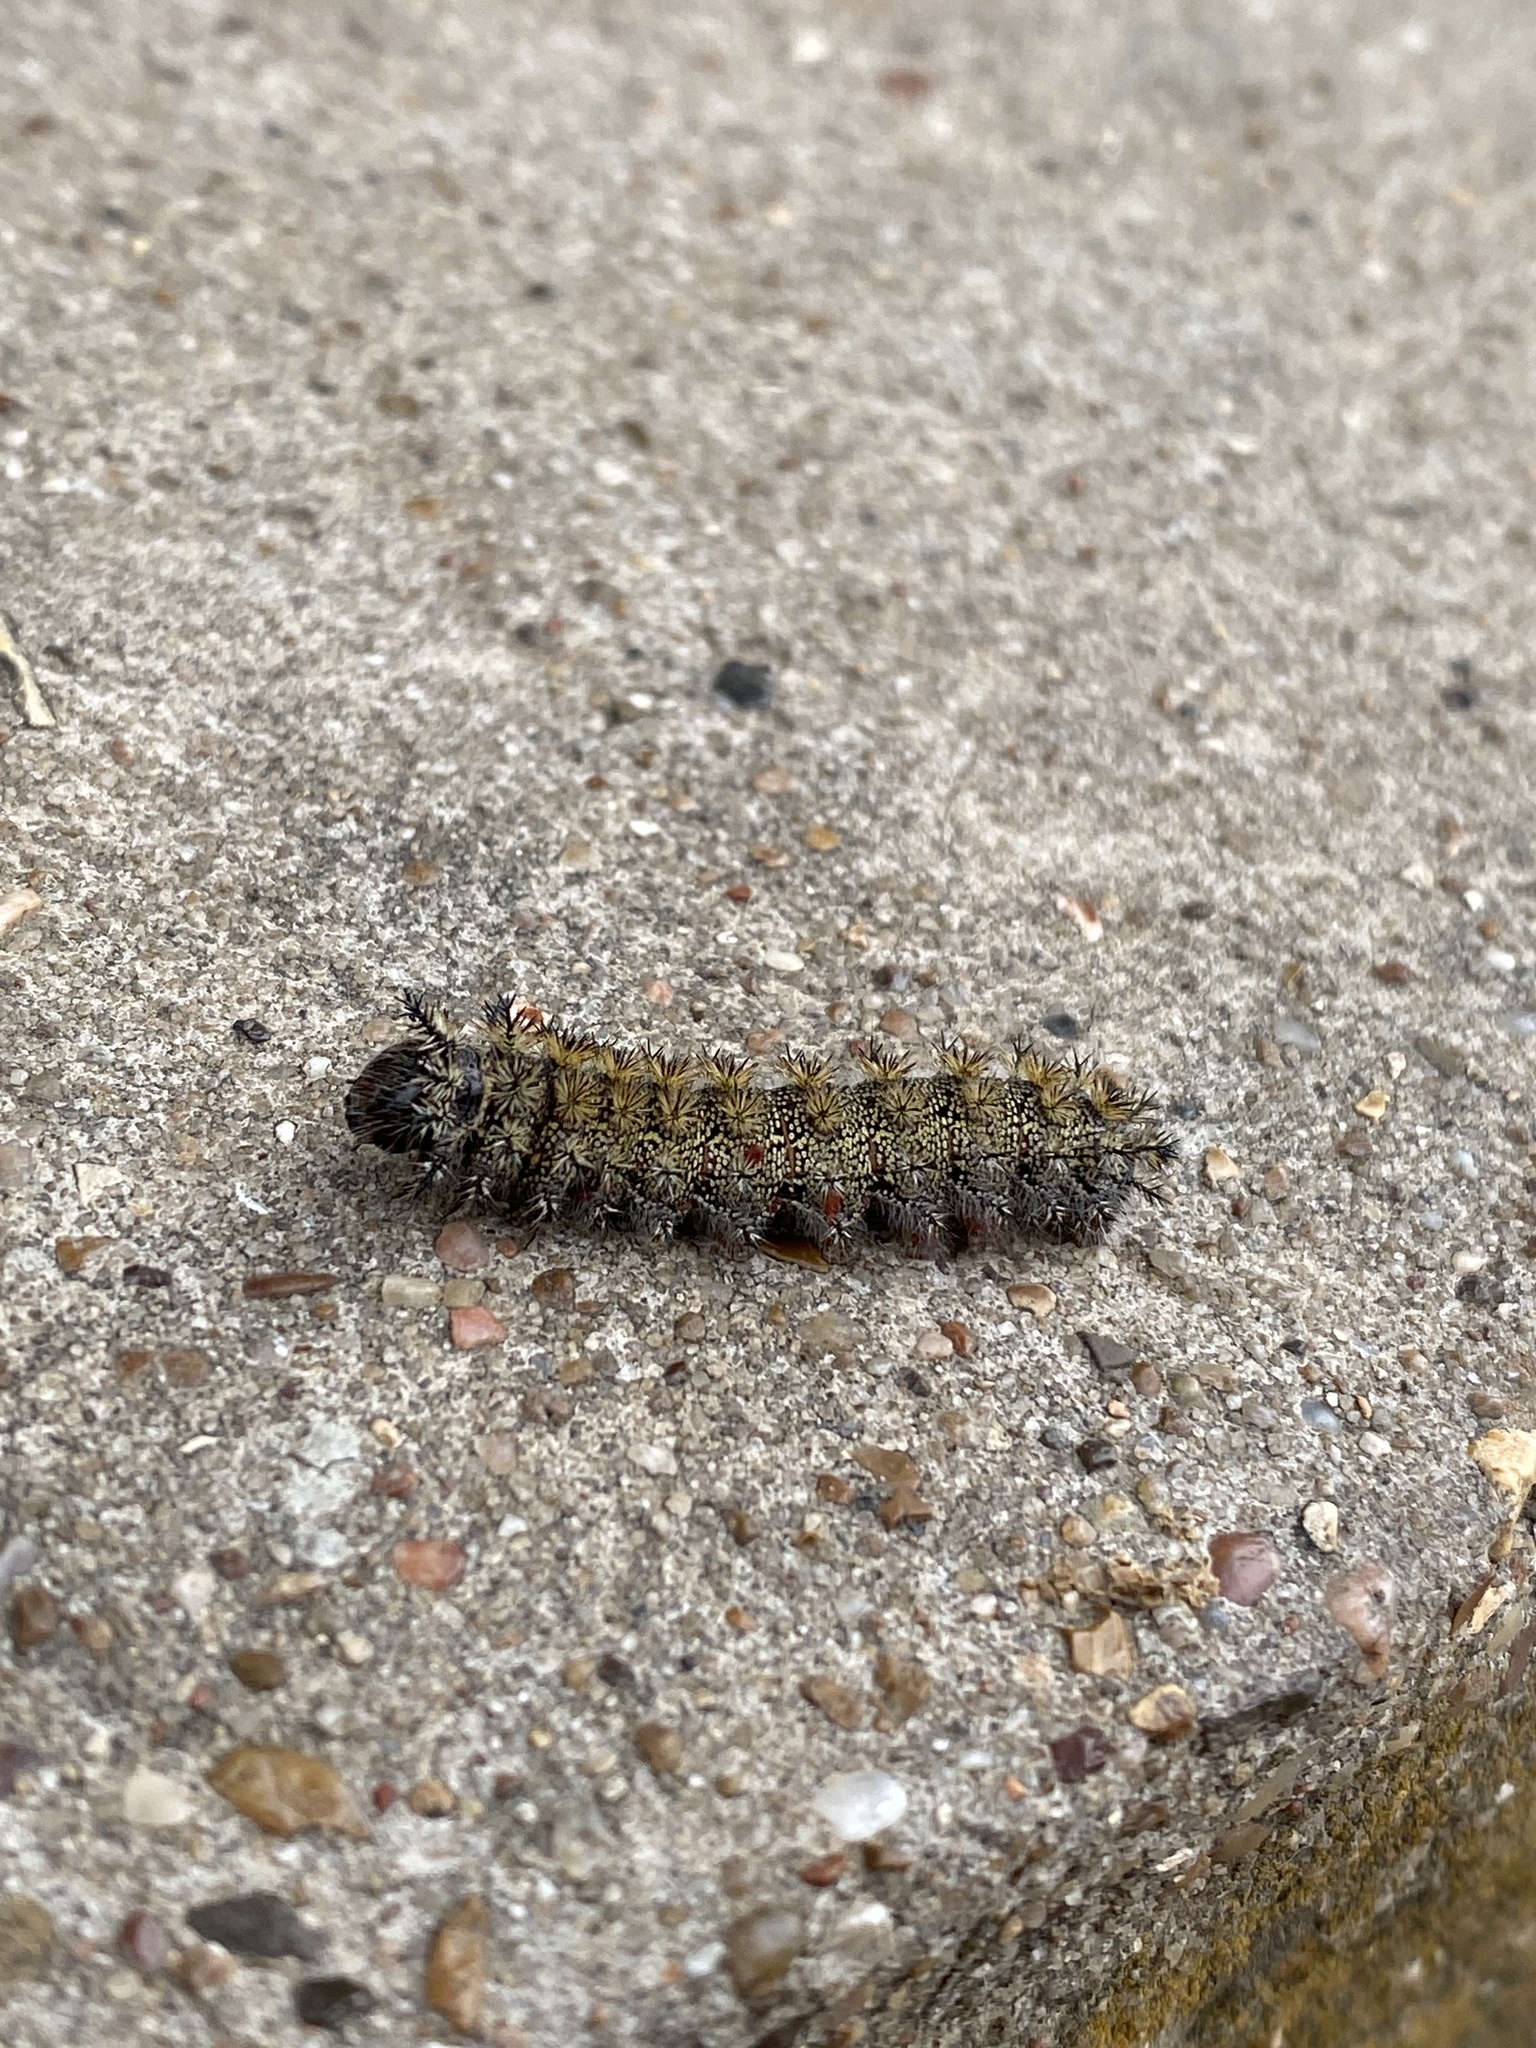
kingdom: Animalia
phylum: Arthropoda
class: Insecta
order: Lepidoptera
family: Saturniidae
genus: Hemileuca
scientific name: Hemileuca grotei
